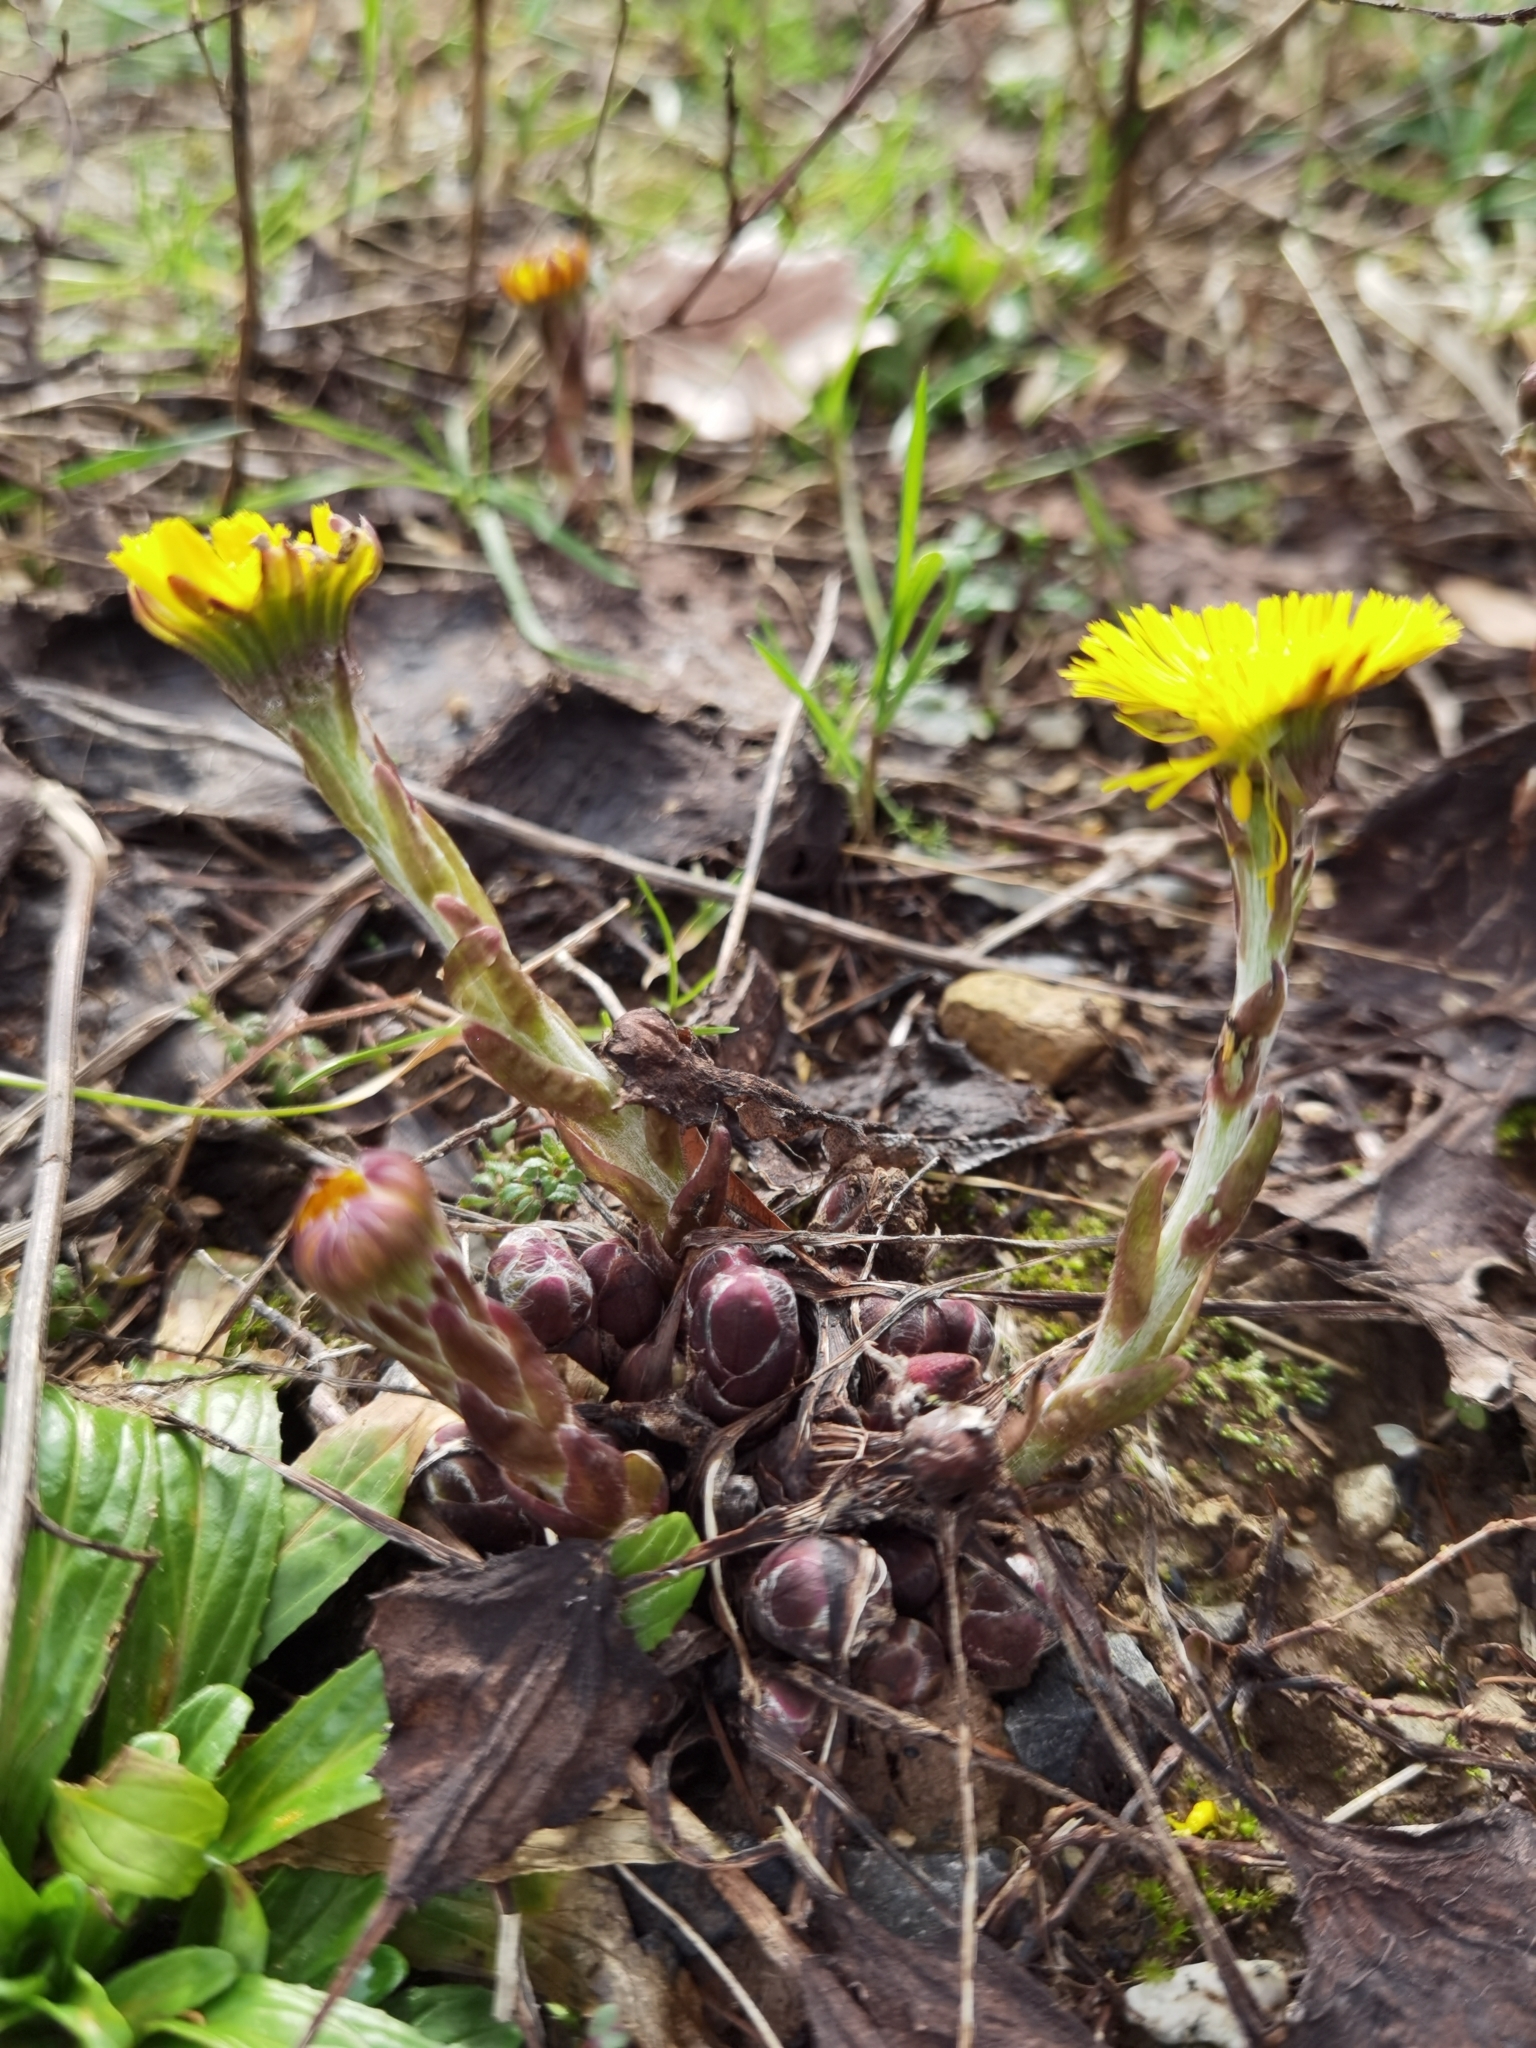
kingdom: Plantae
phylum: Tracheophyta
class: Magnoliopsida
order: Asterales
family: Asteraceae
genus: Tussilago
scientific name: Tussilago farfara
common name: Coltsfoot
